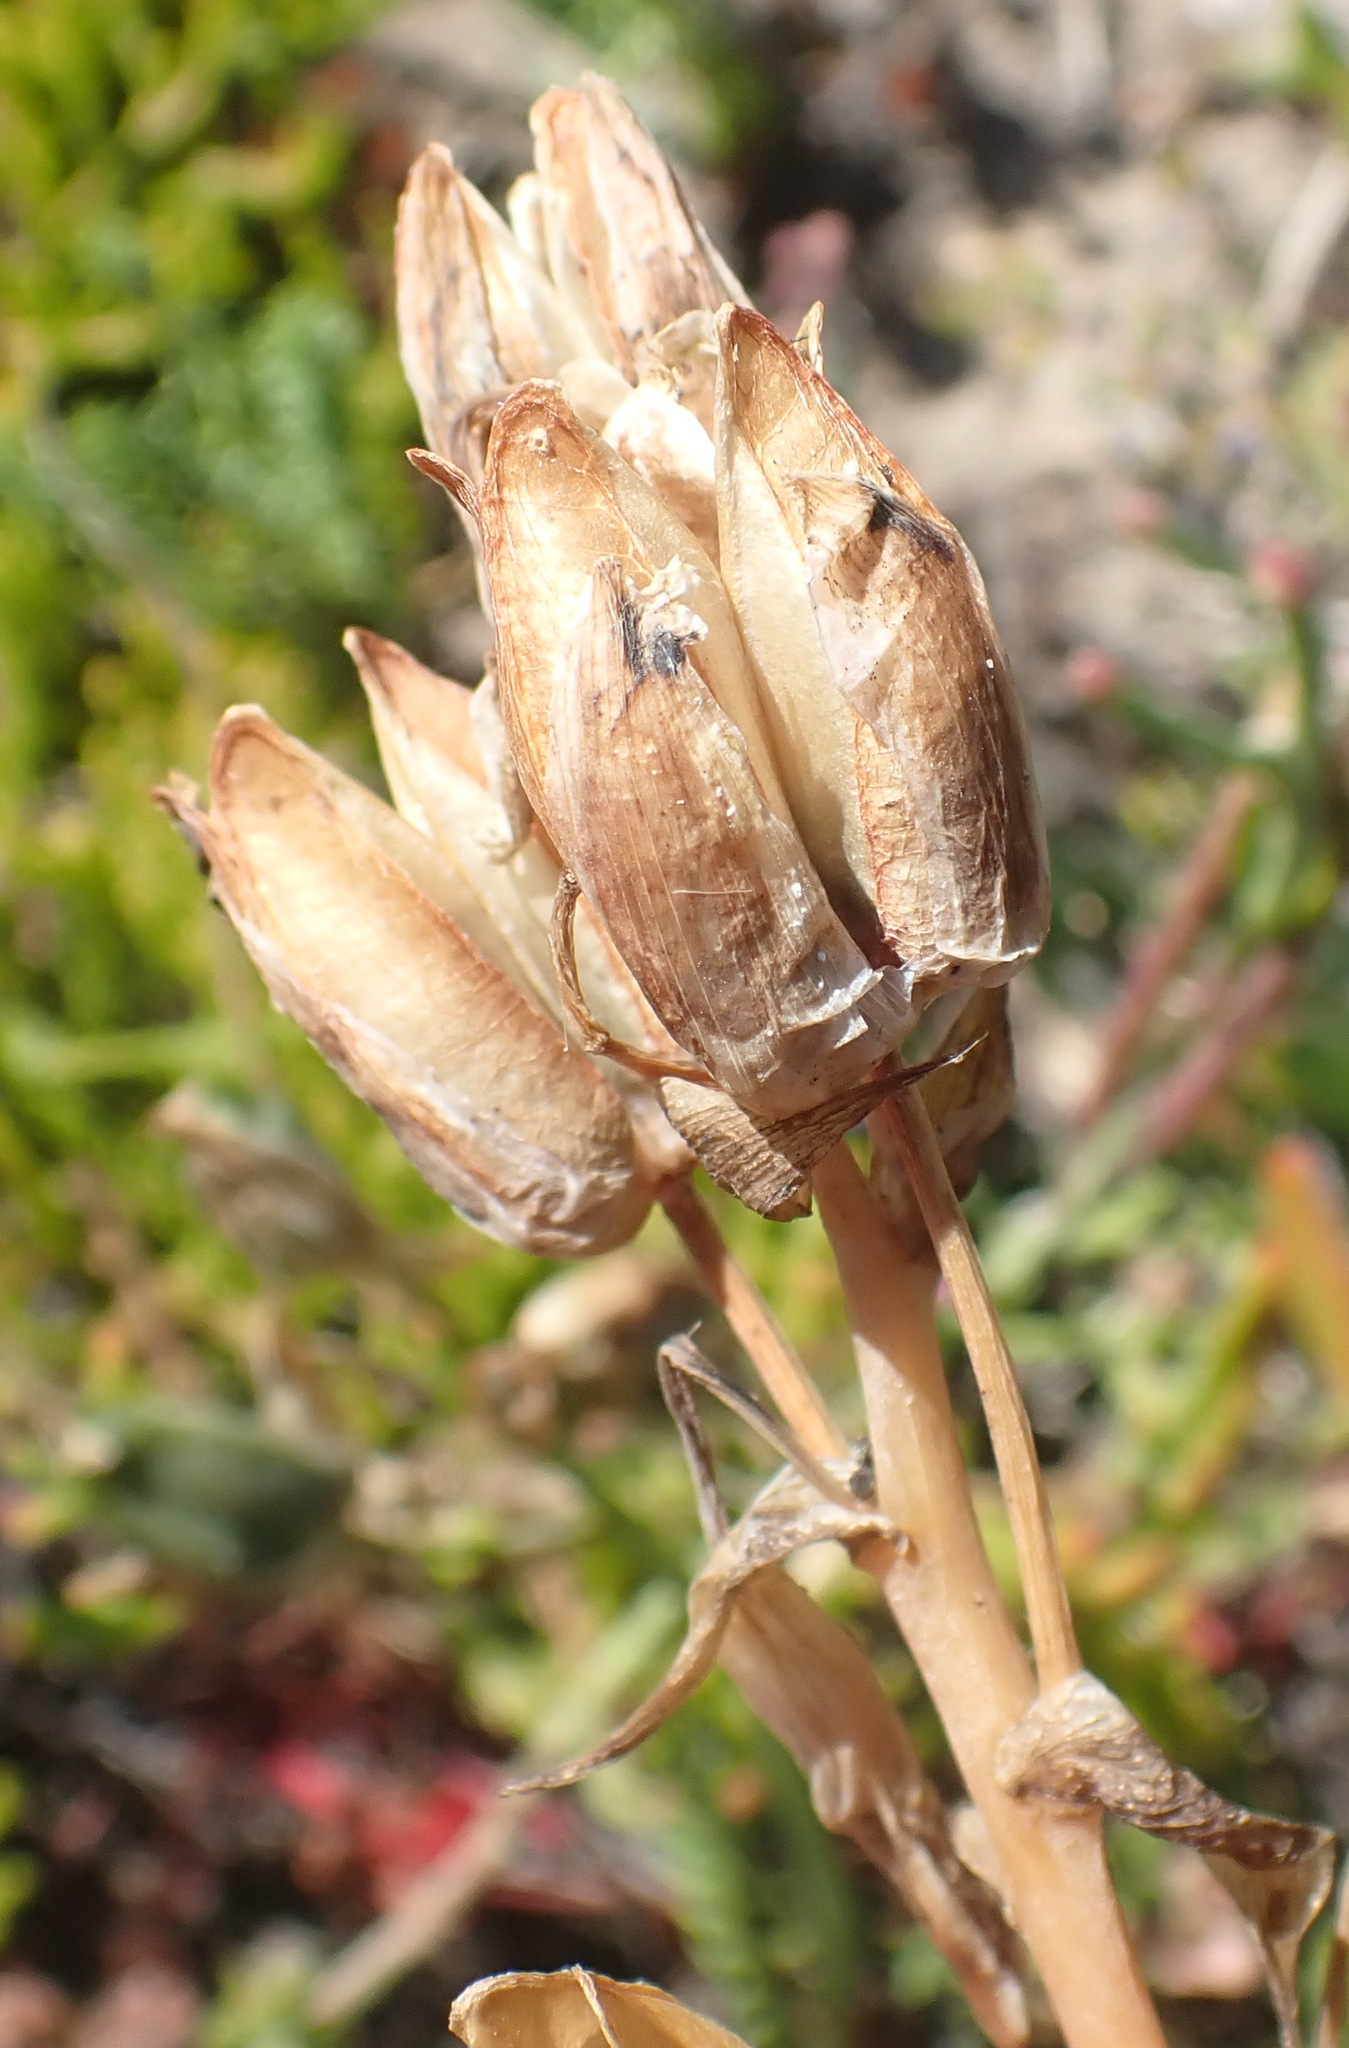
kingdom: Plantae
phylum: Tracheophyta
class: Liliopsida
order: Asparagales
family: Asparagaceae
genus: Albuca
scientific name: Albuca cooperi
